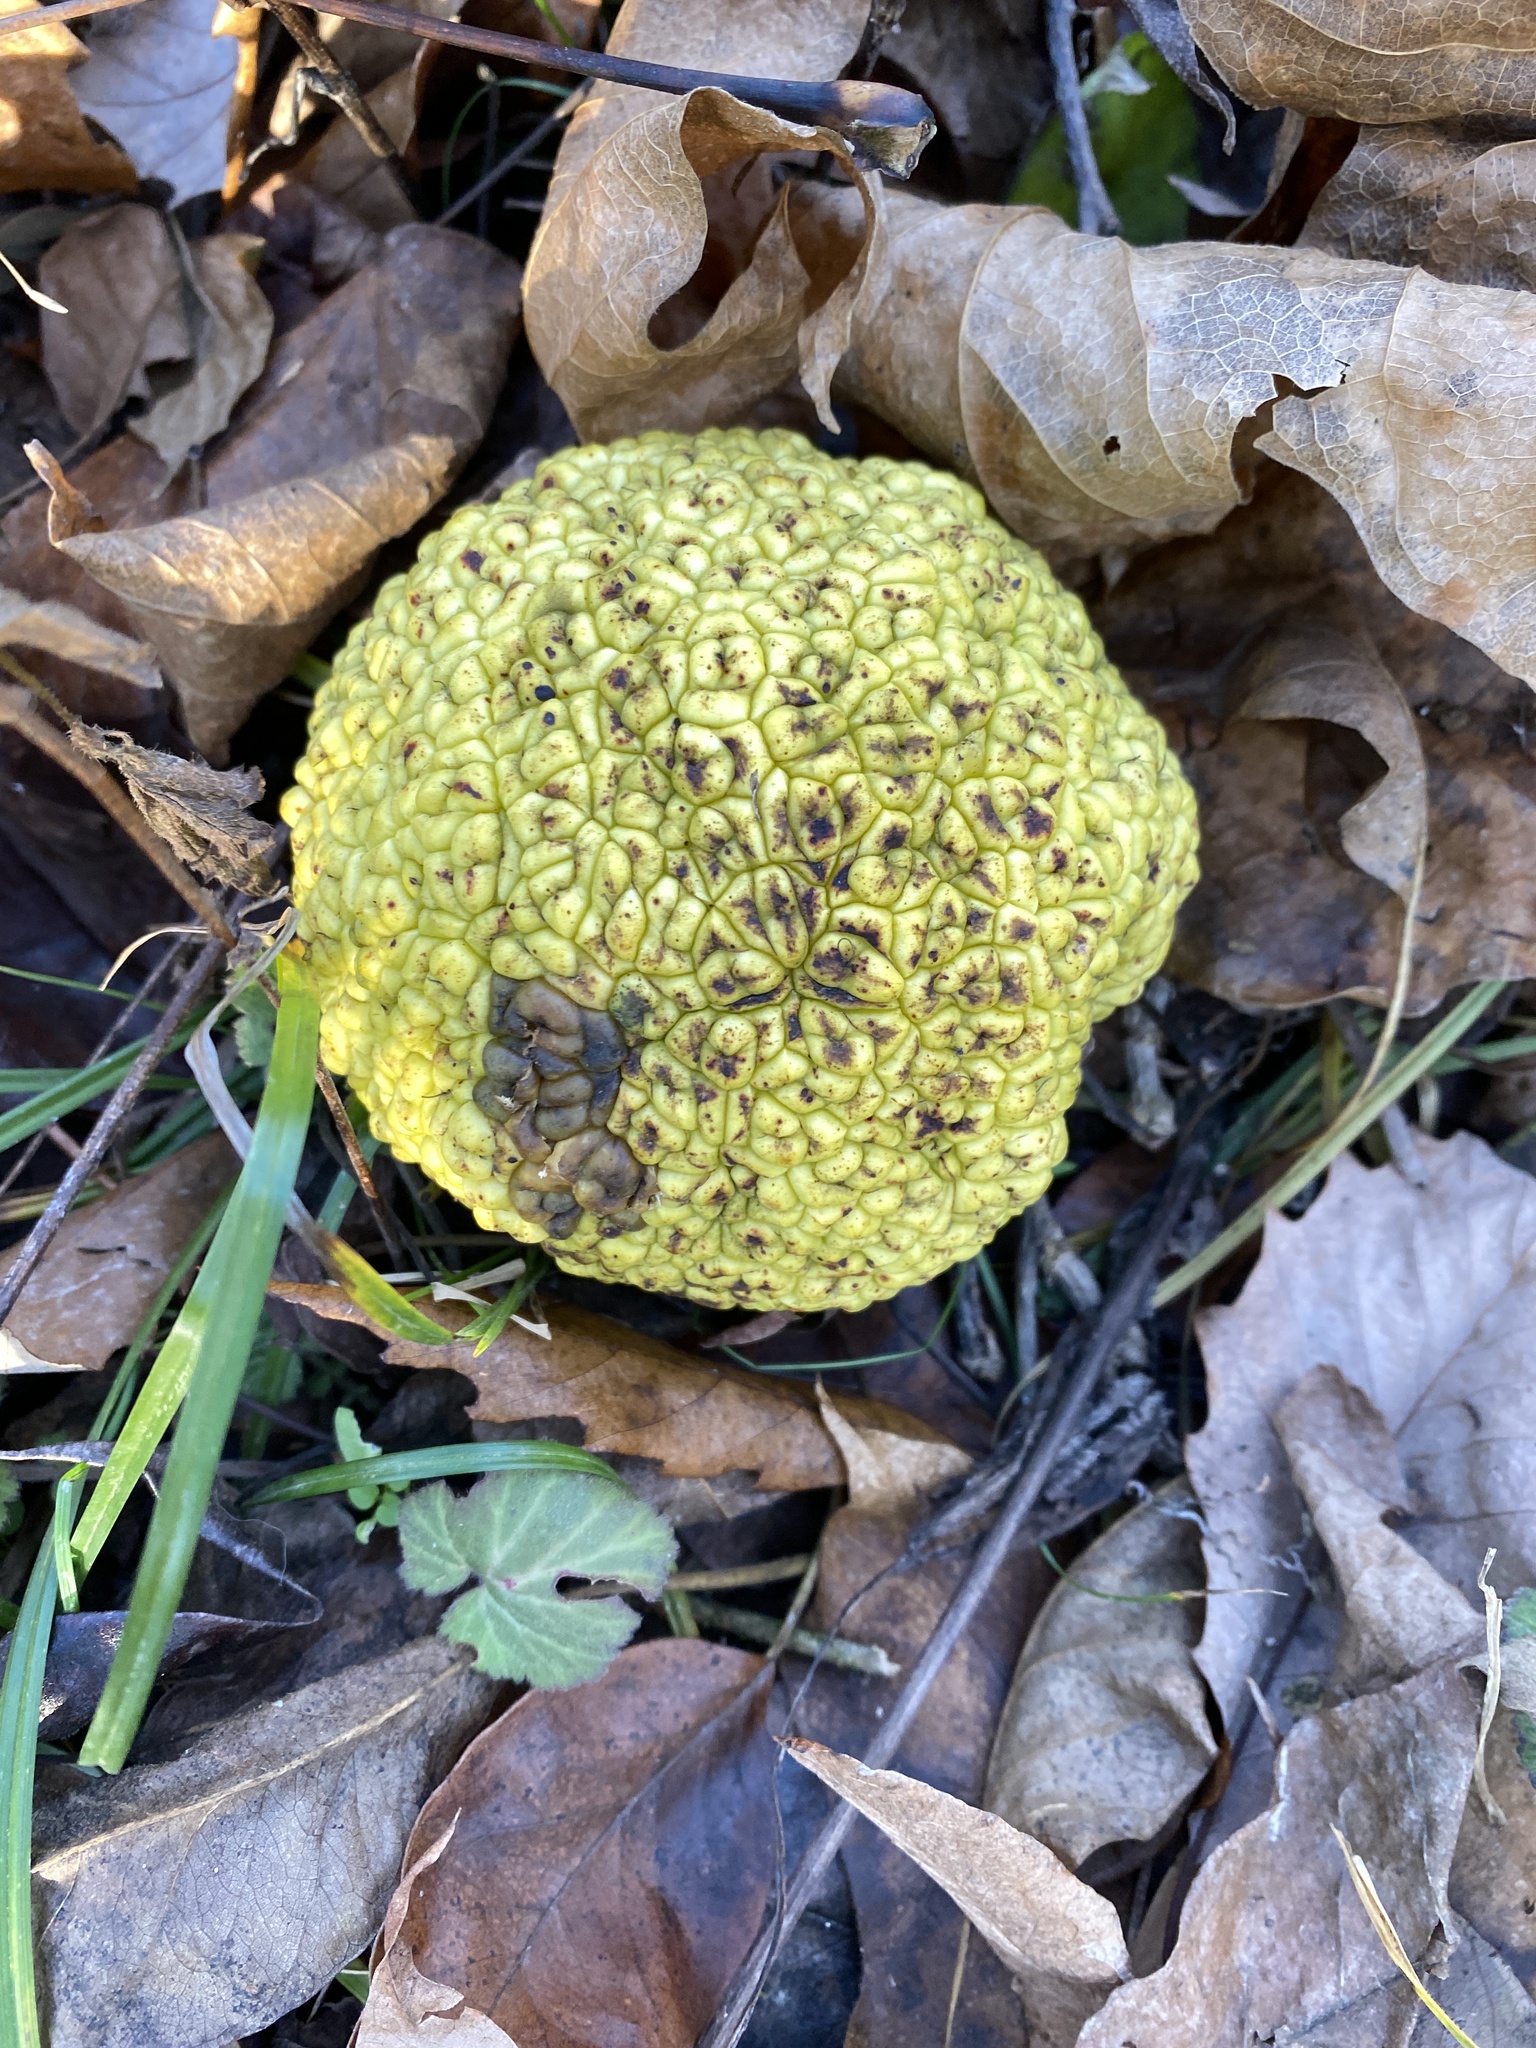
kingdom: Plantae
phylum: Tracheophyta
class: Magnoliopsida
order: Rosales
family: Moraceae
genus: Maclura
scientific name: Maclura pomifera
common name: Osage-orange
